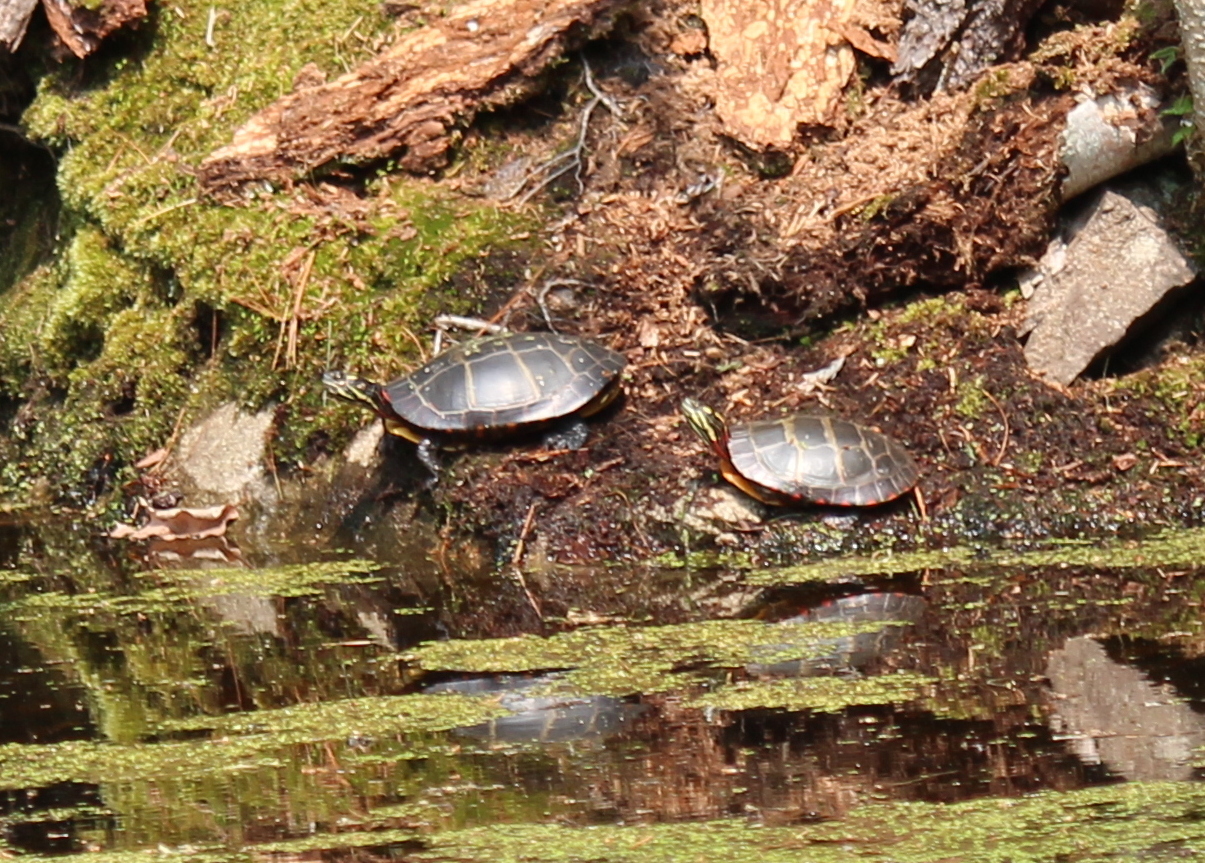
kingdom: Animalia
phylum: Chordata
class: Testudines
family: Emydidae
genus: Chrysemys
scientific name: Chrysemys picta
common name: Painted turtle
